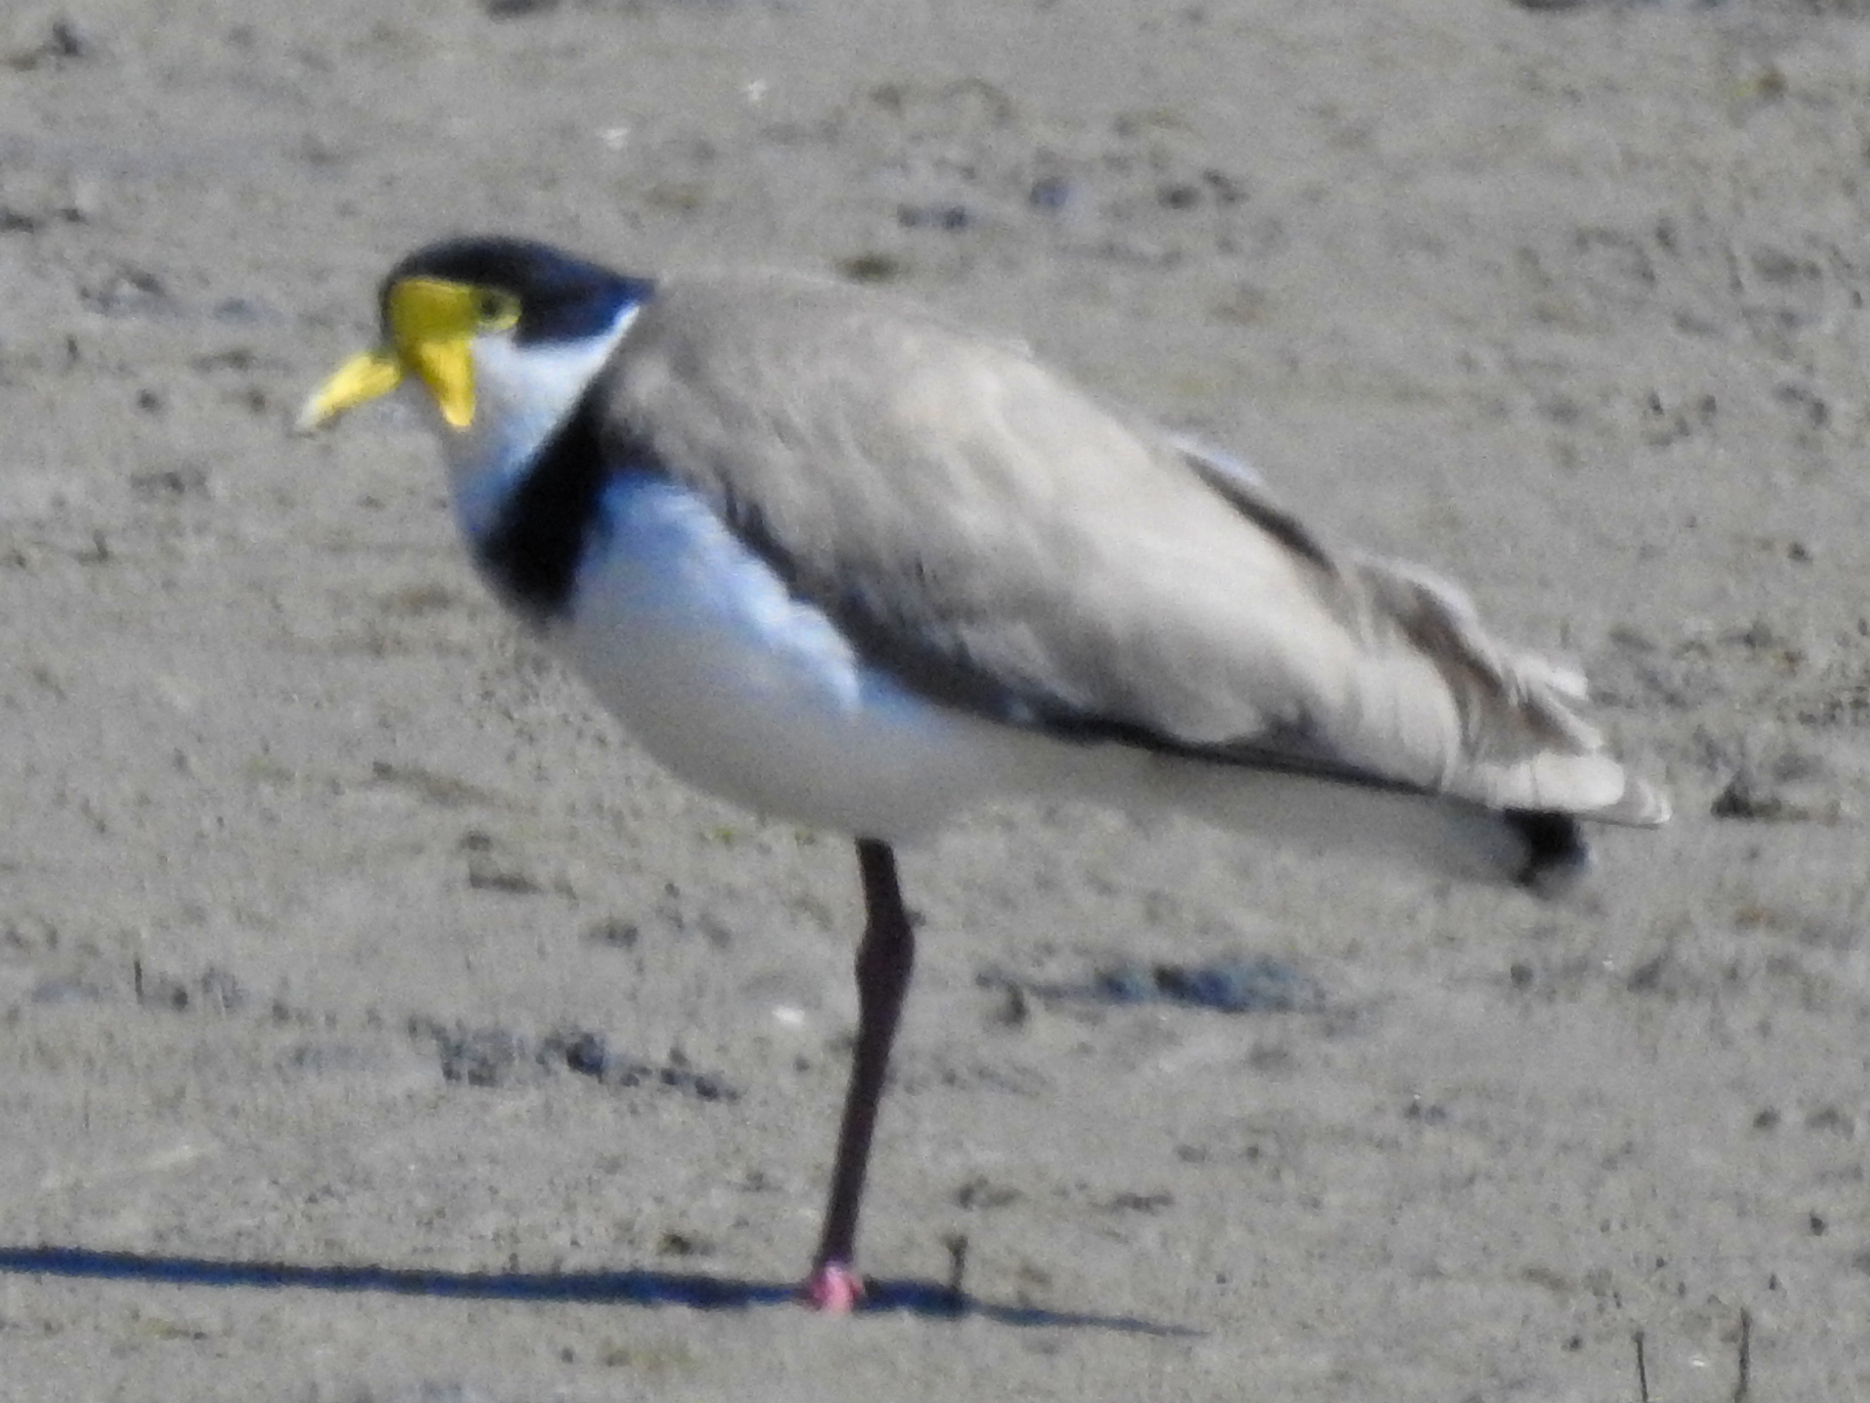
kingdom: Animalia
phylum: Chordata
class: Aves
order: Charadriiformes
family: Charadriidae
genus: Vanellus
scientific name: Vanellus miles
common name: Masked lapwing
